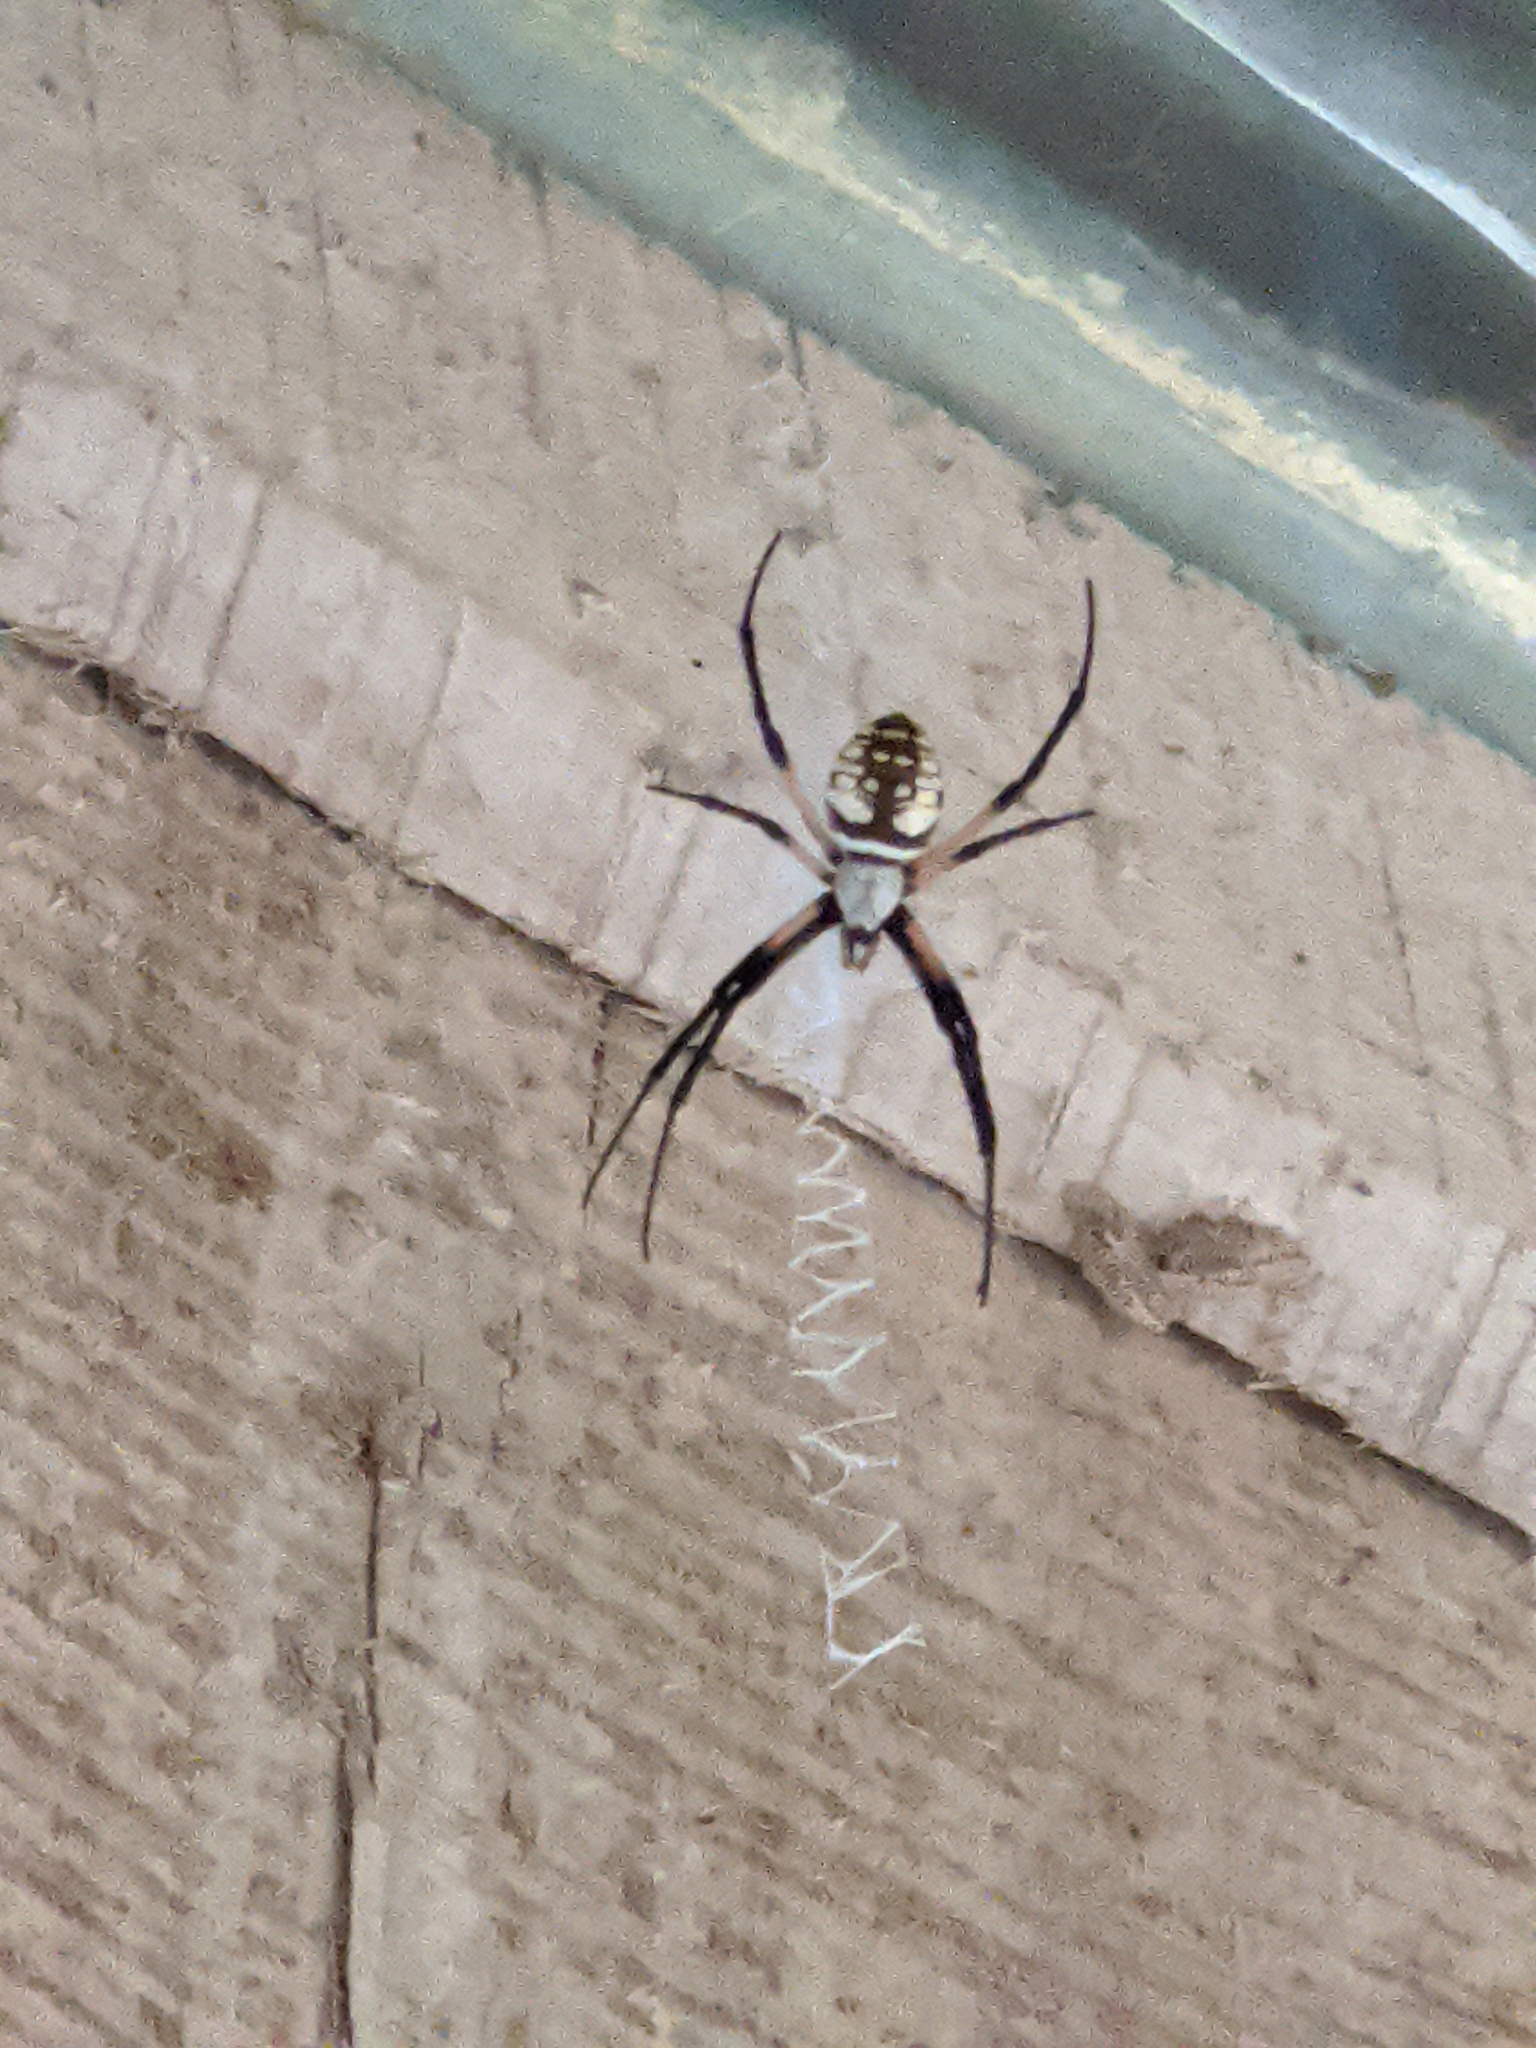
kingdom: Animalia
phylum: Arthropoda
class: Arachnida
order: Araneae
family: Araneidae
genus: Argiope
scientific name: Argiope aurantia
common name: Orb weavers
